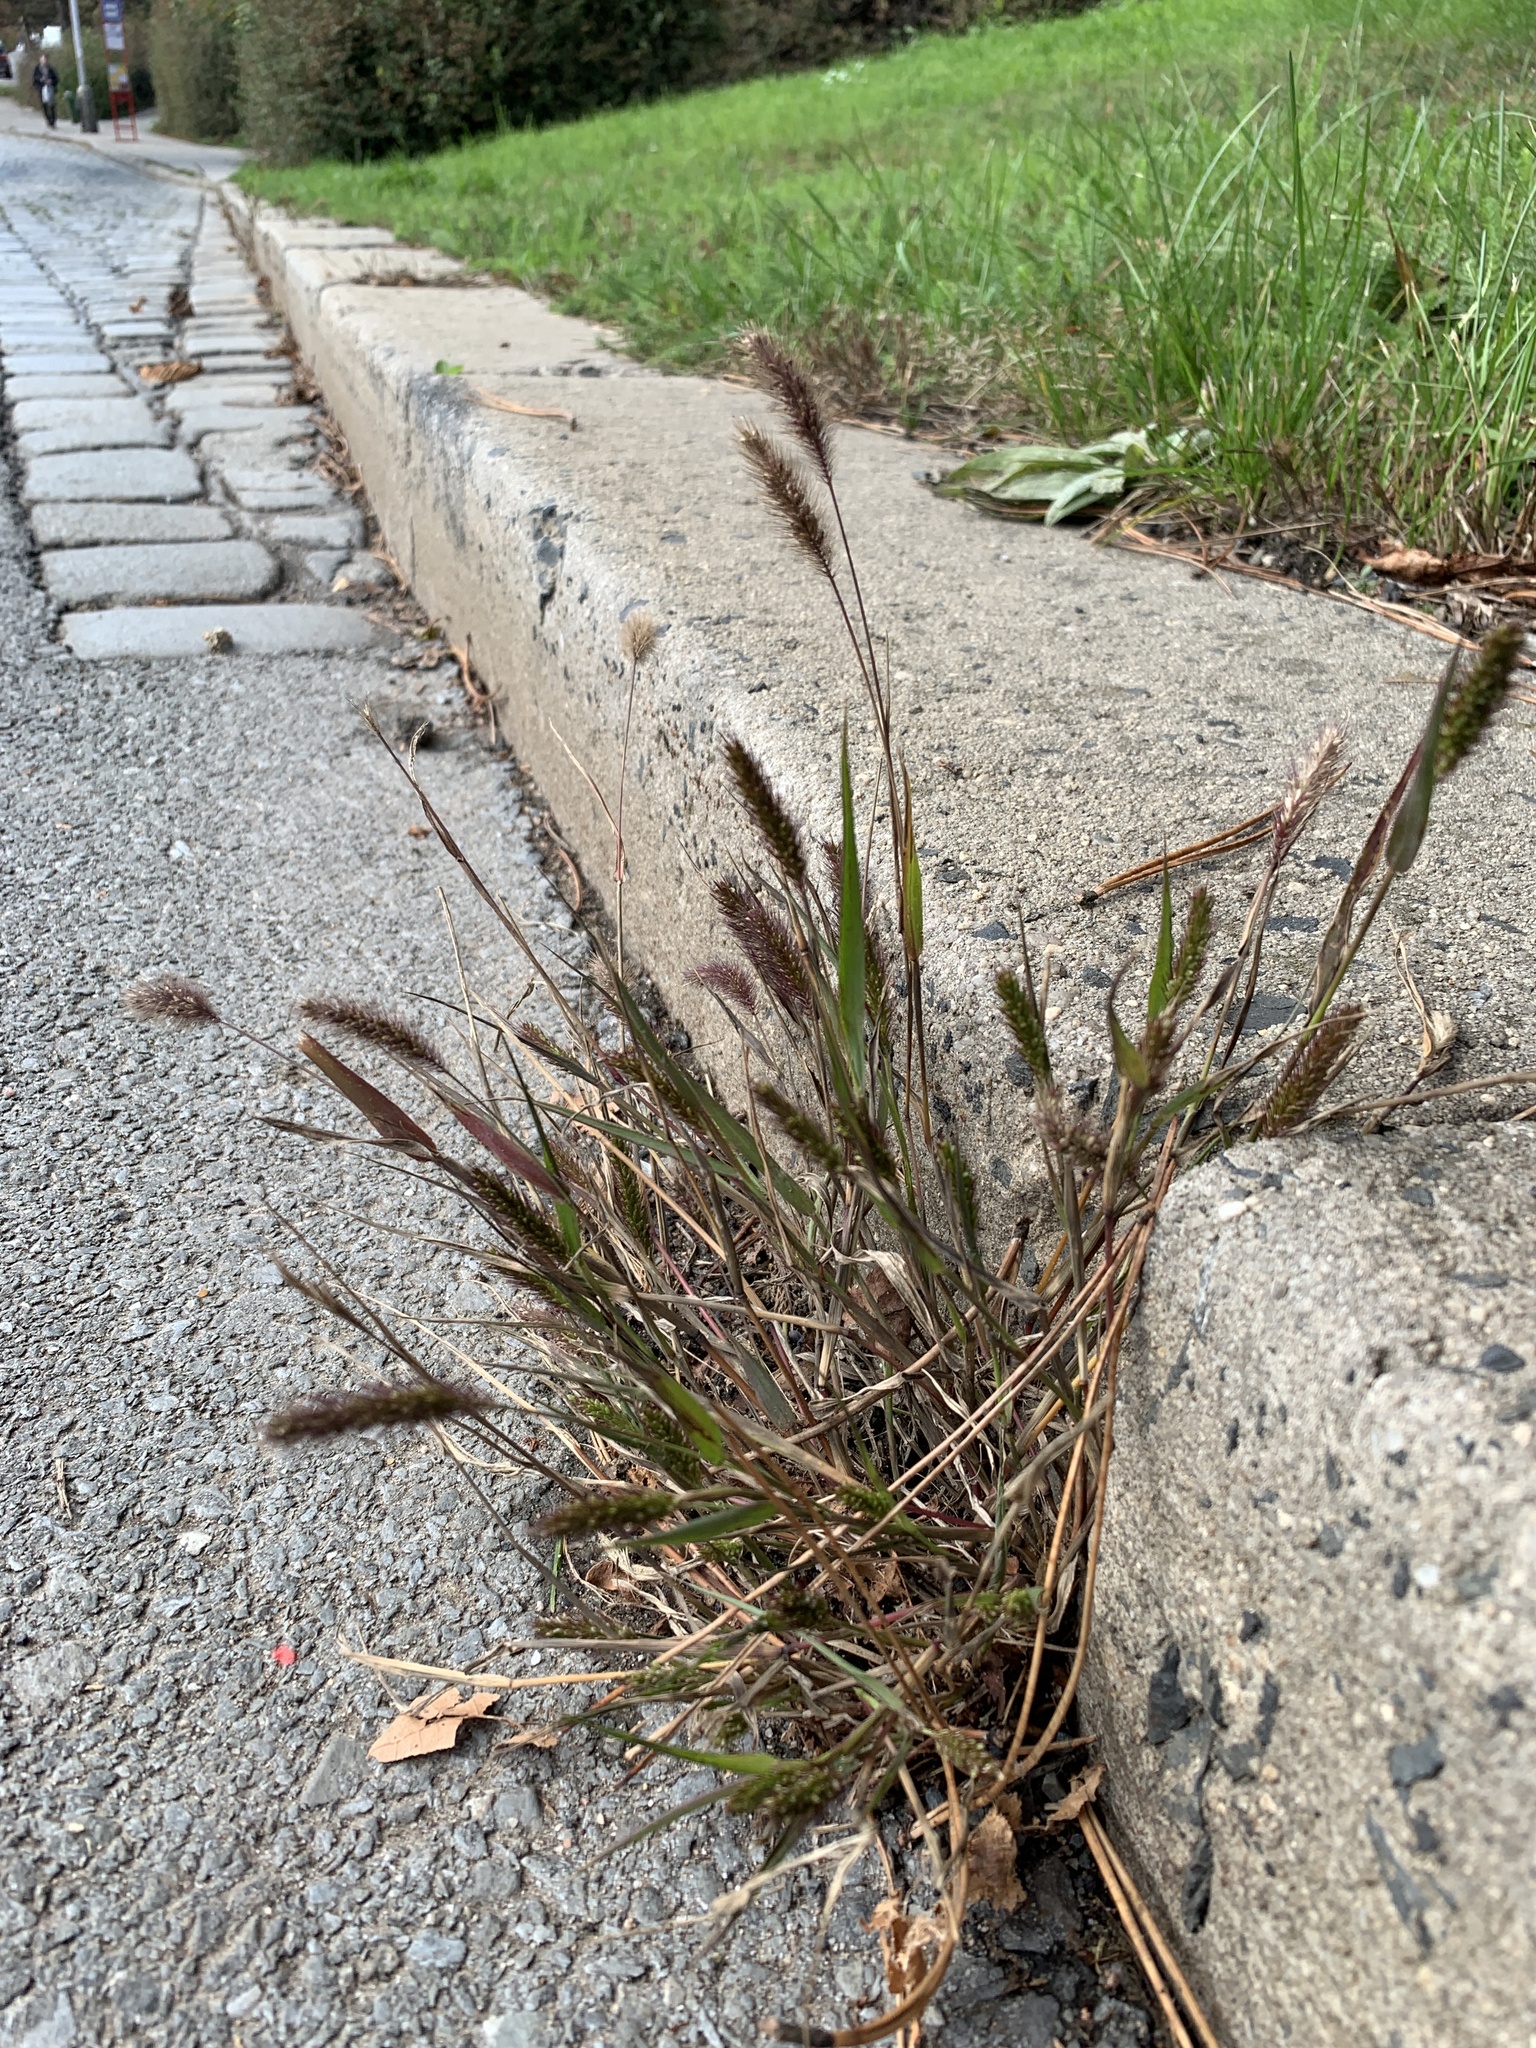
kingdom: Plantae
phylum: Tracheophyta
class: Liliopsida
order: Poales
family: Poaceae
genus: Setaria
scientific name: Setaria viridis
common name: Green bristlegrass
